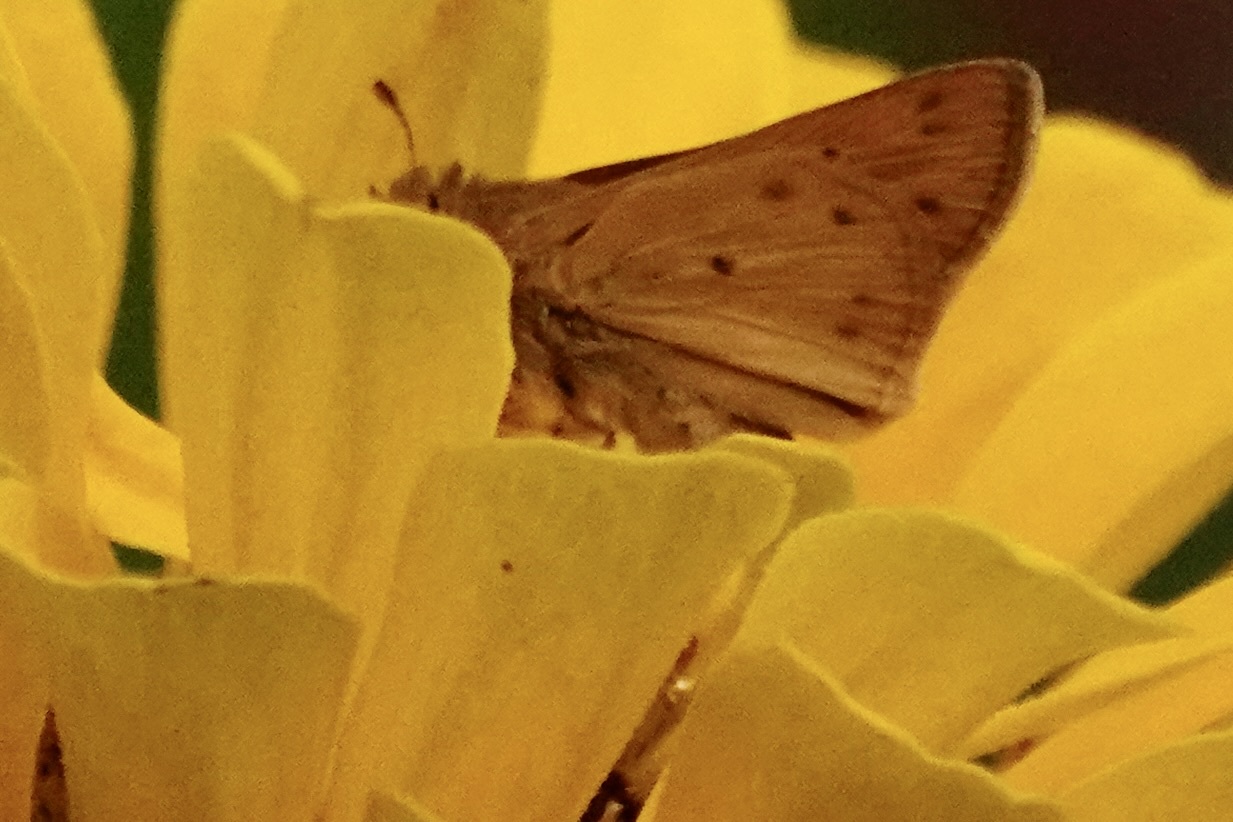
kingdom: Animalia
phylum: Arthropoda
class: Insecta
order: Lepidoptera
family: Hesperiidae
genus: Hylephila
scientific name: Hylephila phyleus
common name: Fiery skipper
